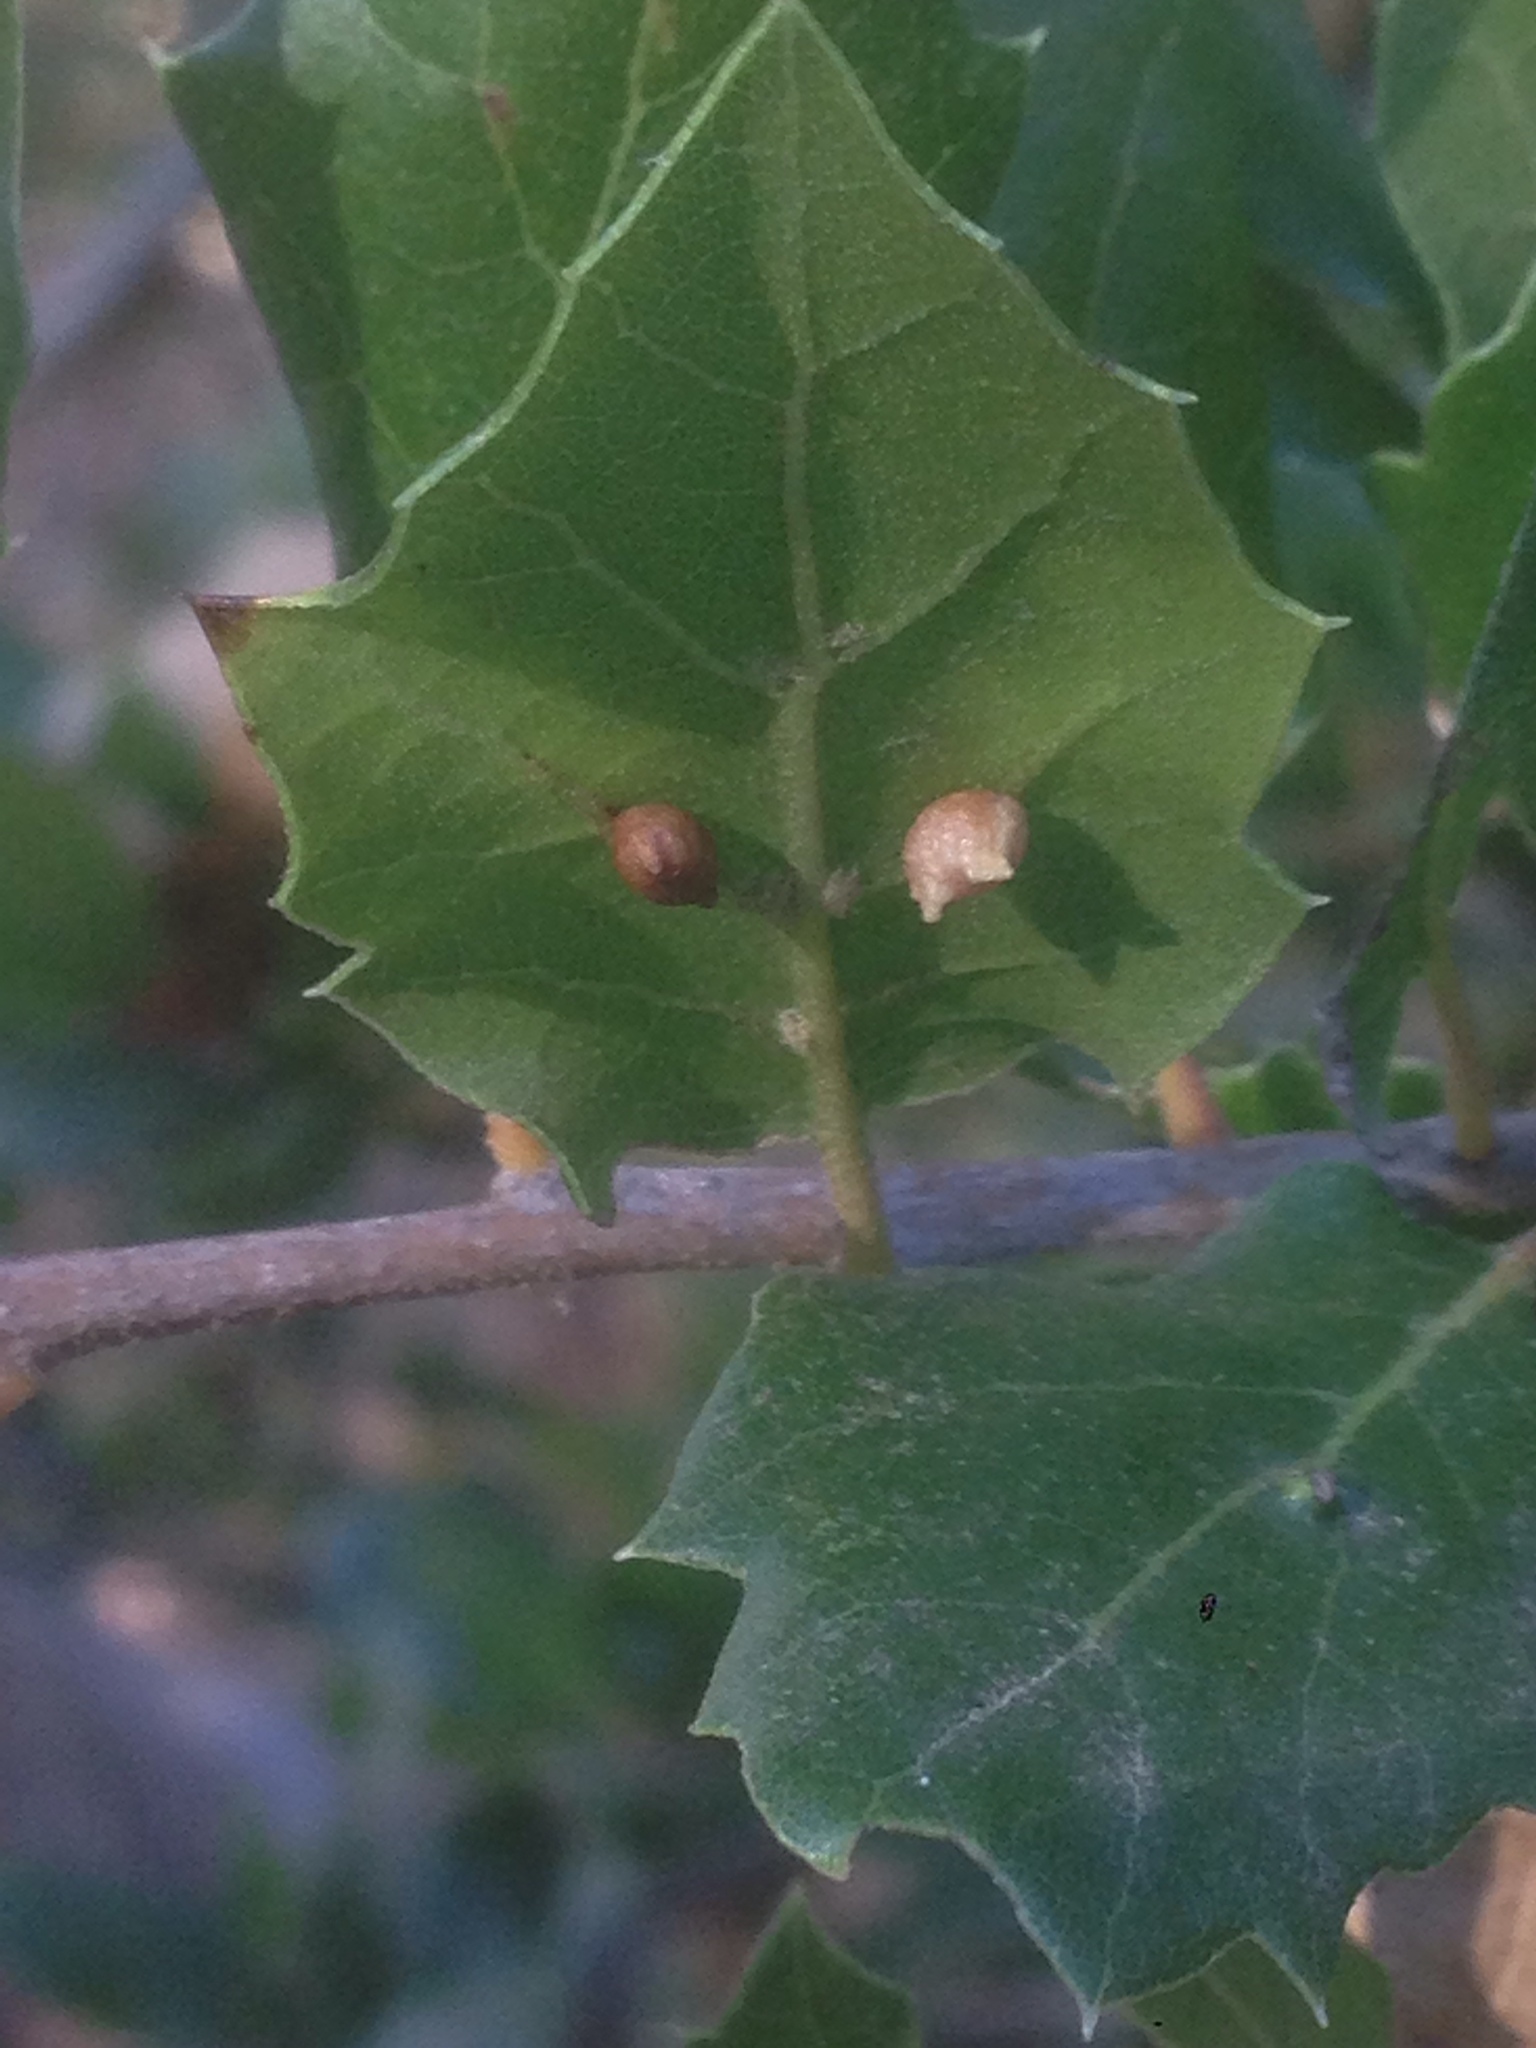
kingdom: Animalia
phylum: Arthropoda
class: Insecta
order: Hymenoptera
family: Cynipidae
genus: Dryocosmus
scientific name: Dryocosmus
